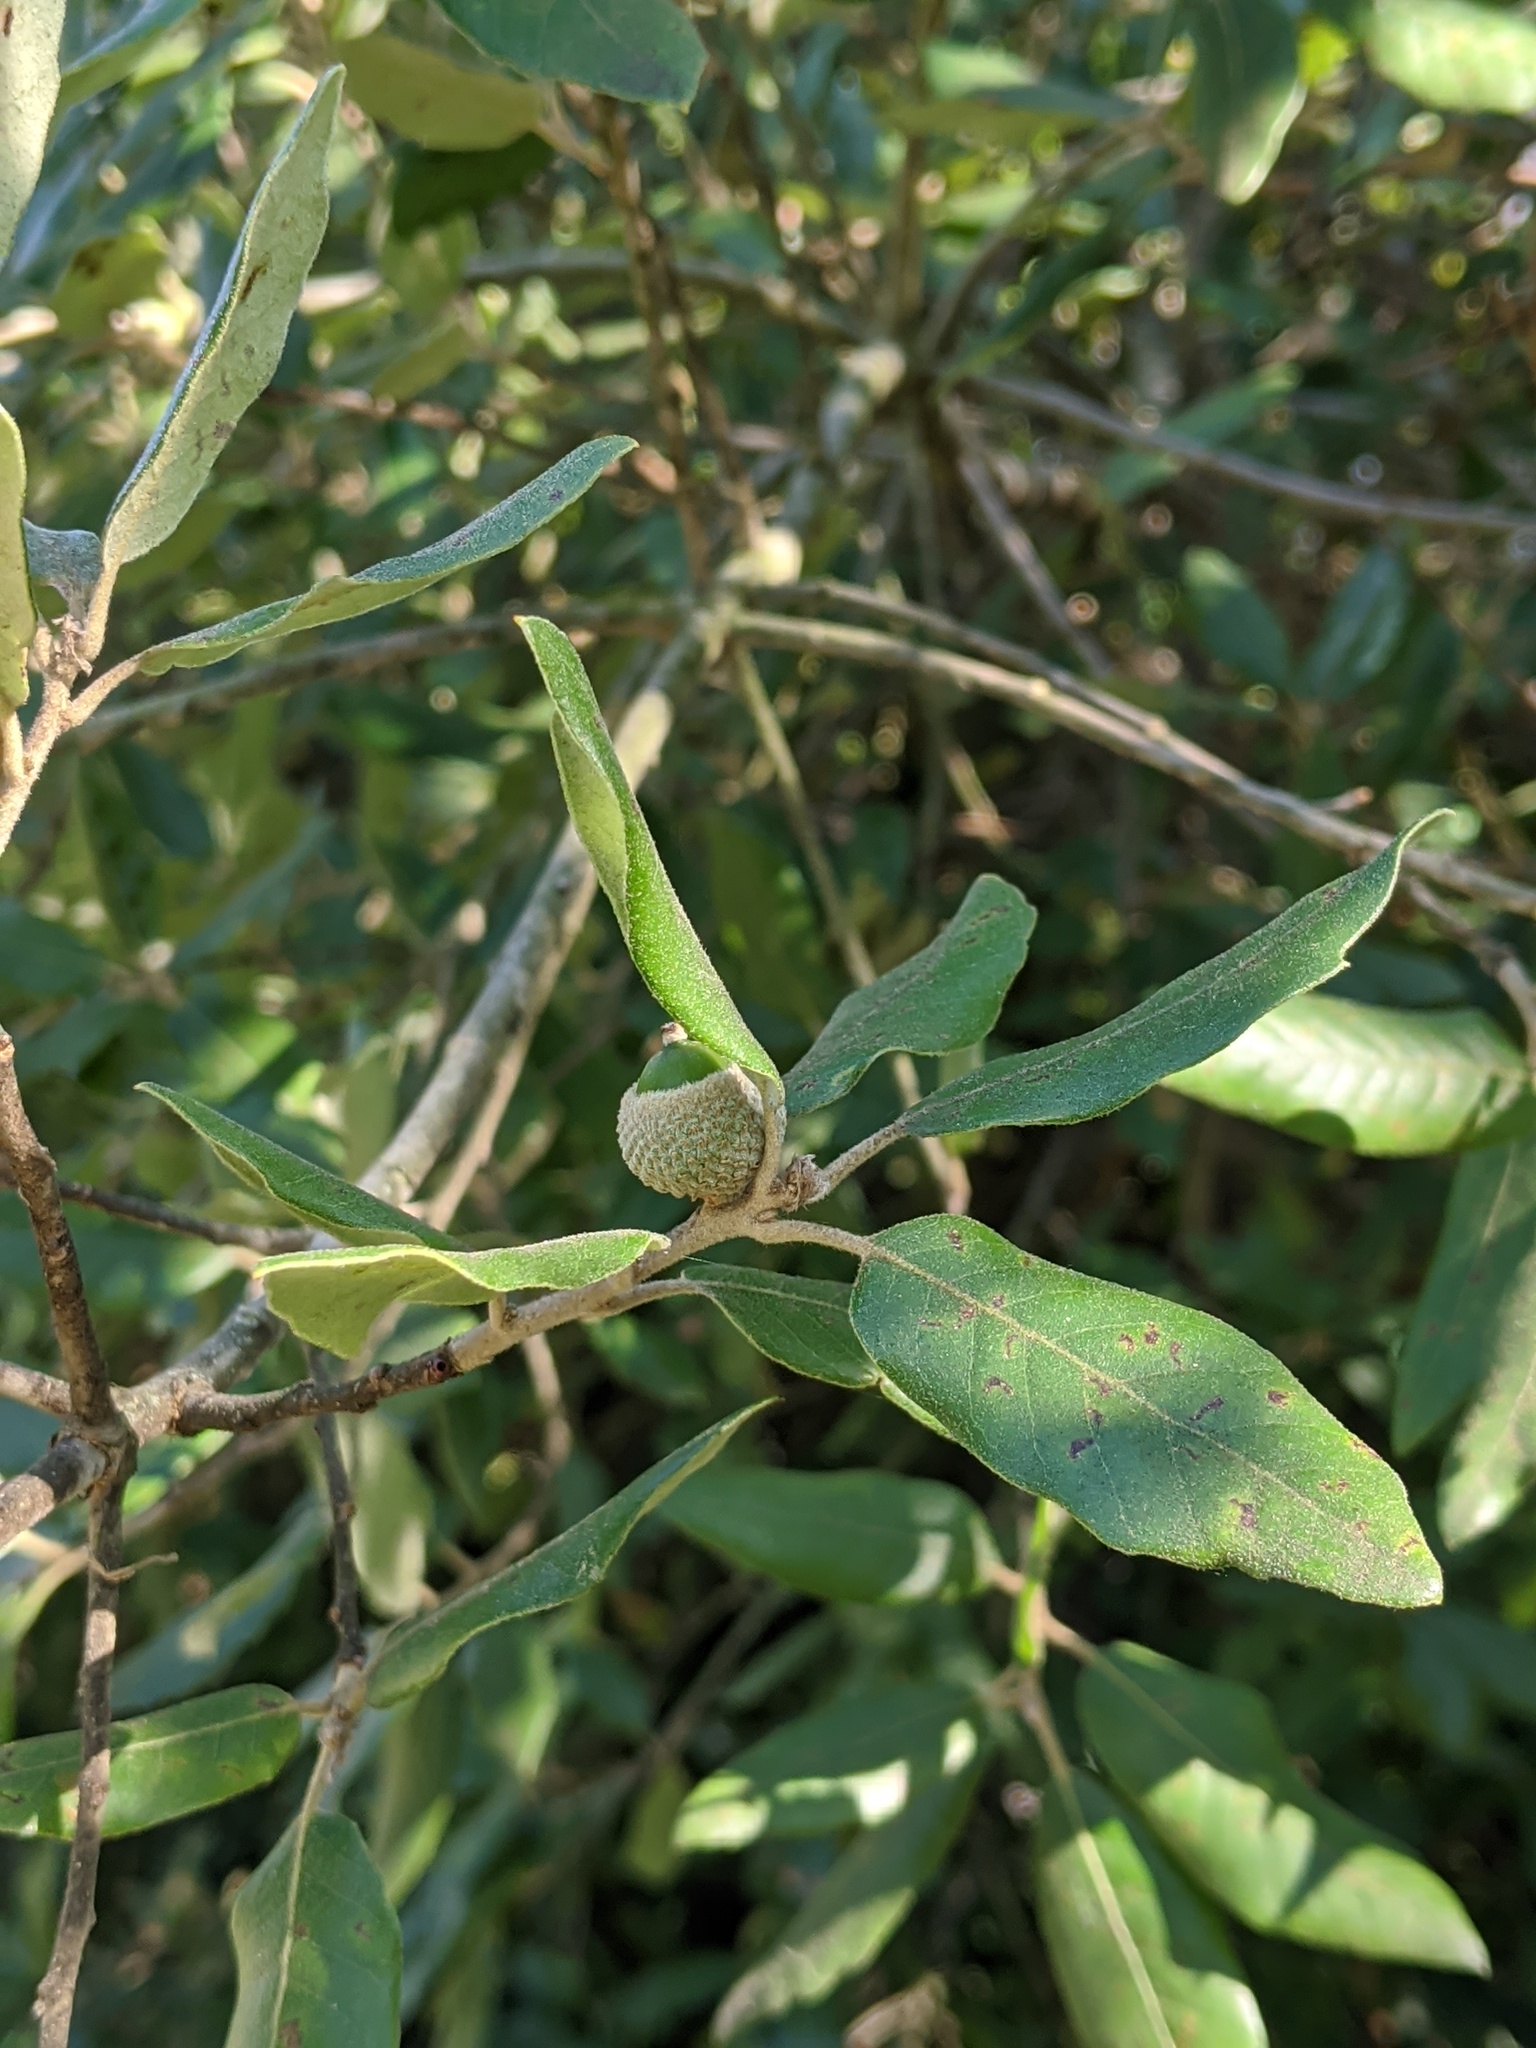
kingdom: Plantae
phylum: Tracheophyta
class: Magnoliopsida
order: Fagales
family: Fagaceae
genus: Quercus
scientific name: Quercus ilex
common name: Evergreen oak
